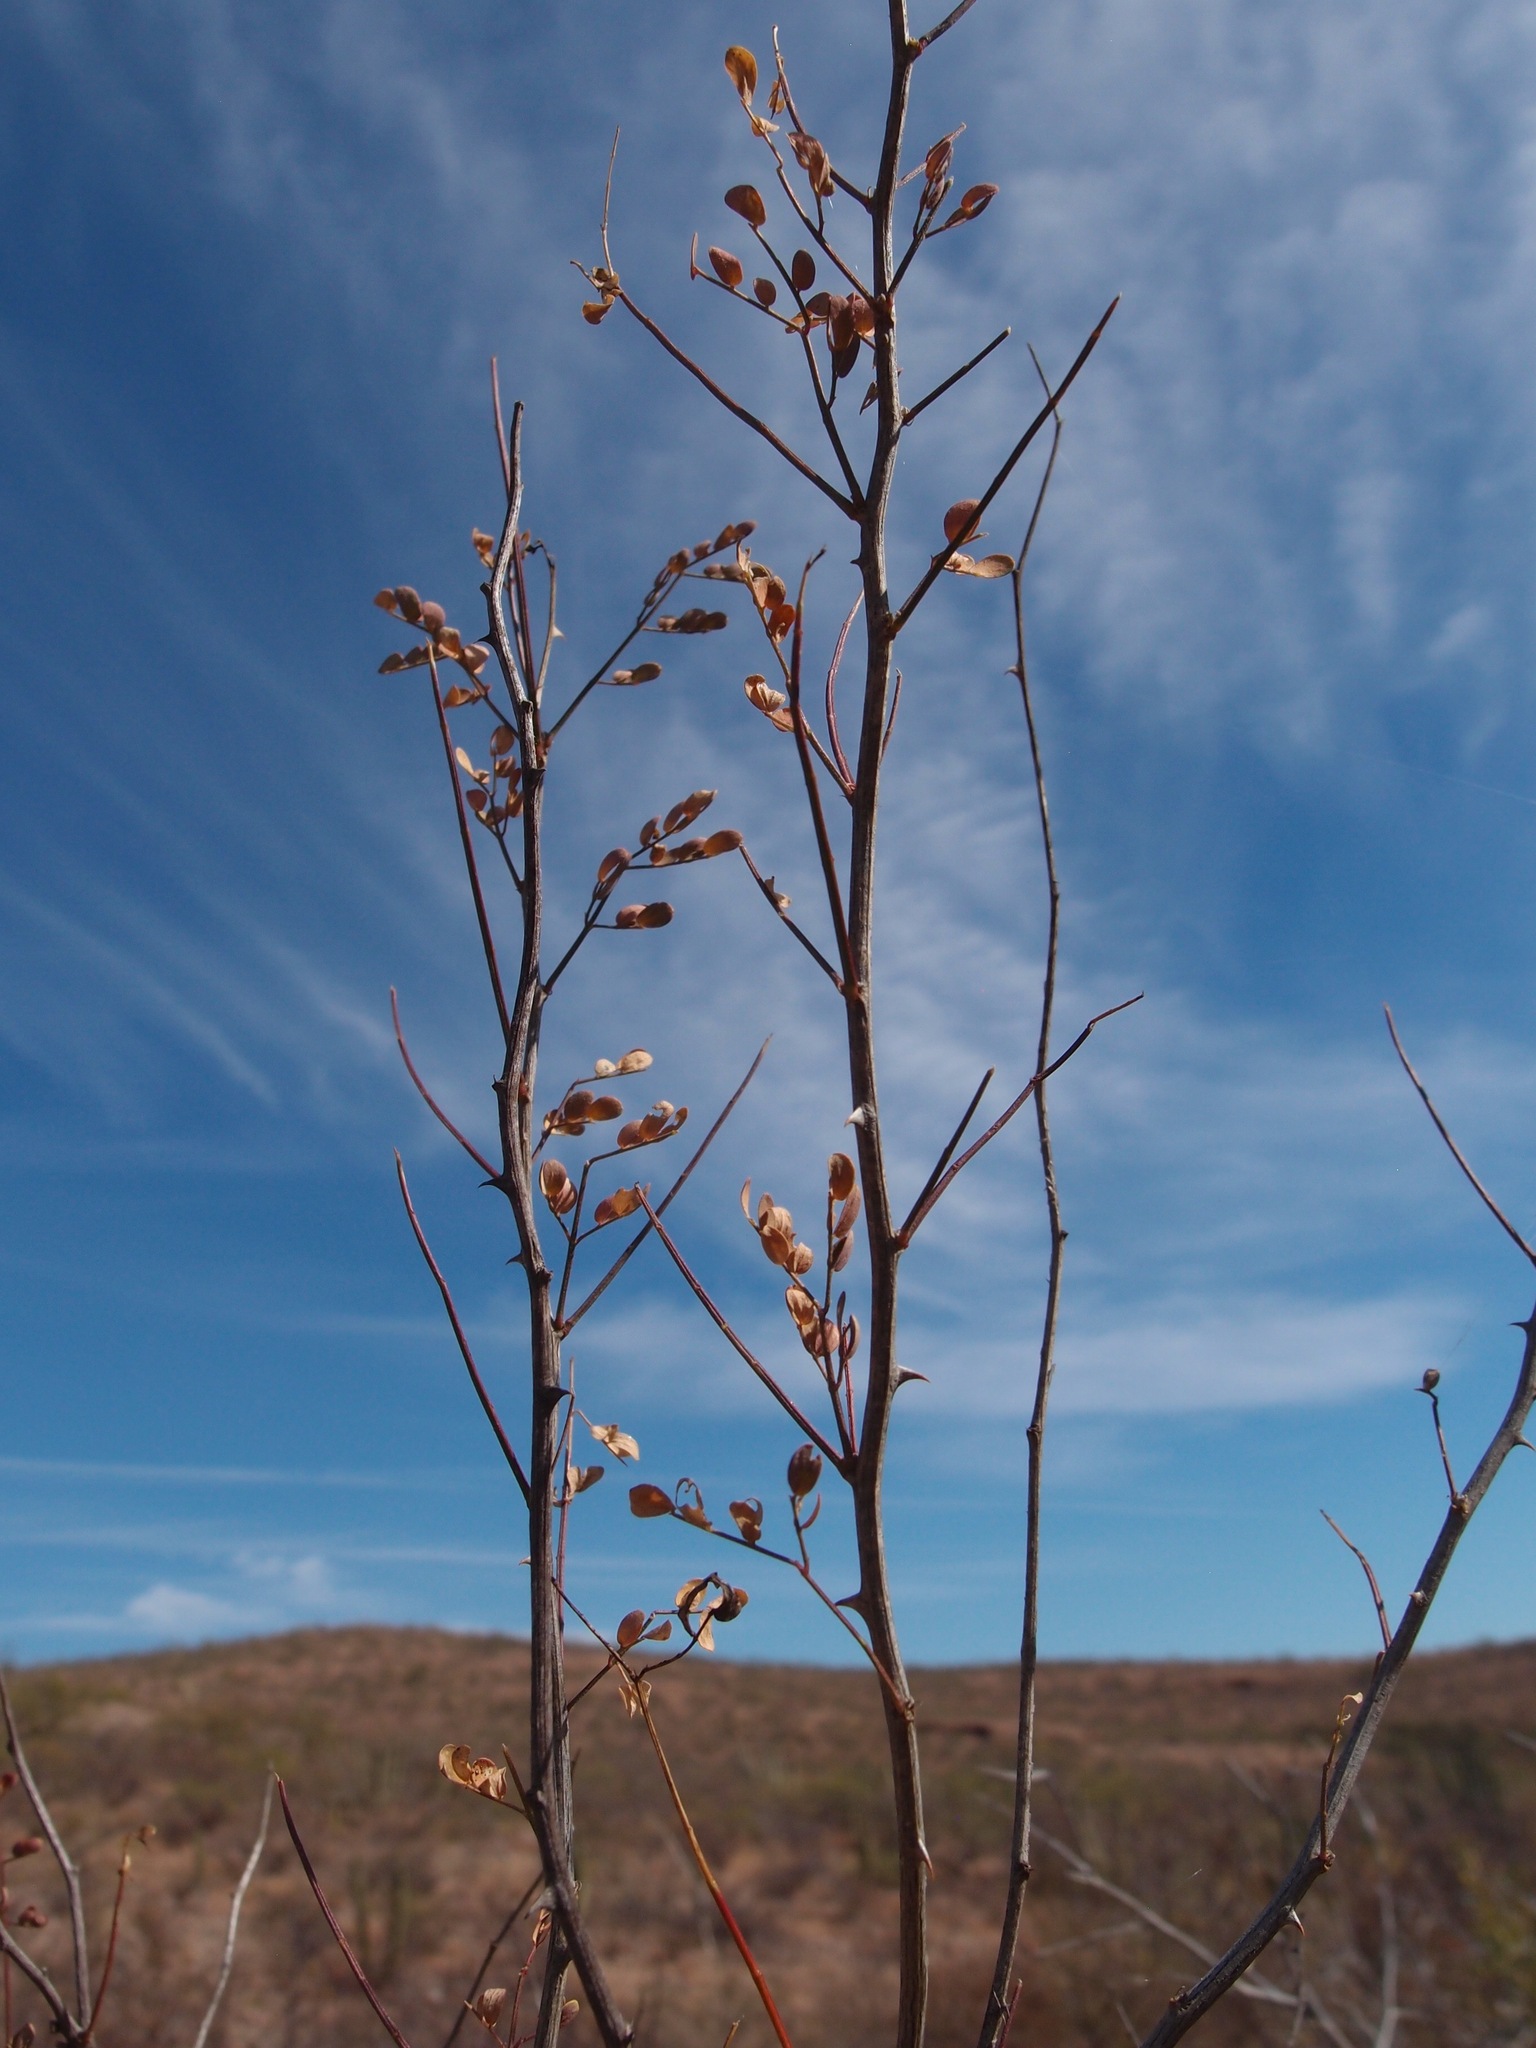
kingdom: Plantae
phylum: Tracheophyta
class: Magnoliopsida
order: Fabales
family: Fabaceae
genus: Mimosa
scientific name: Mimosa distachya
